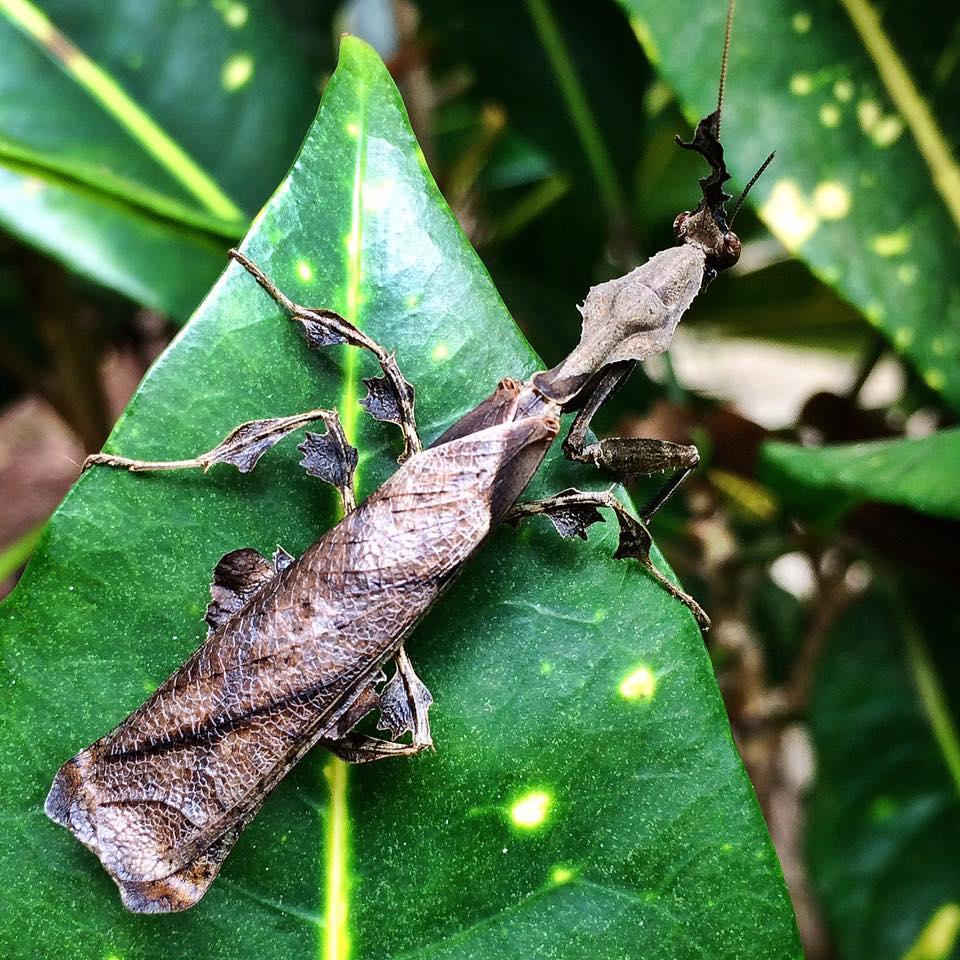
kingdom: Animalia
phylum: Arthropoda
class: Insecta
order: Mantodea
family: Hymenopodidae
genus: Phyllocrania
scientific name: Phyllocrania paradoxa
